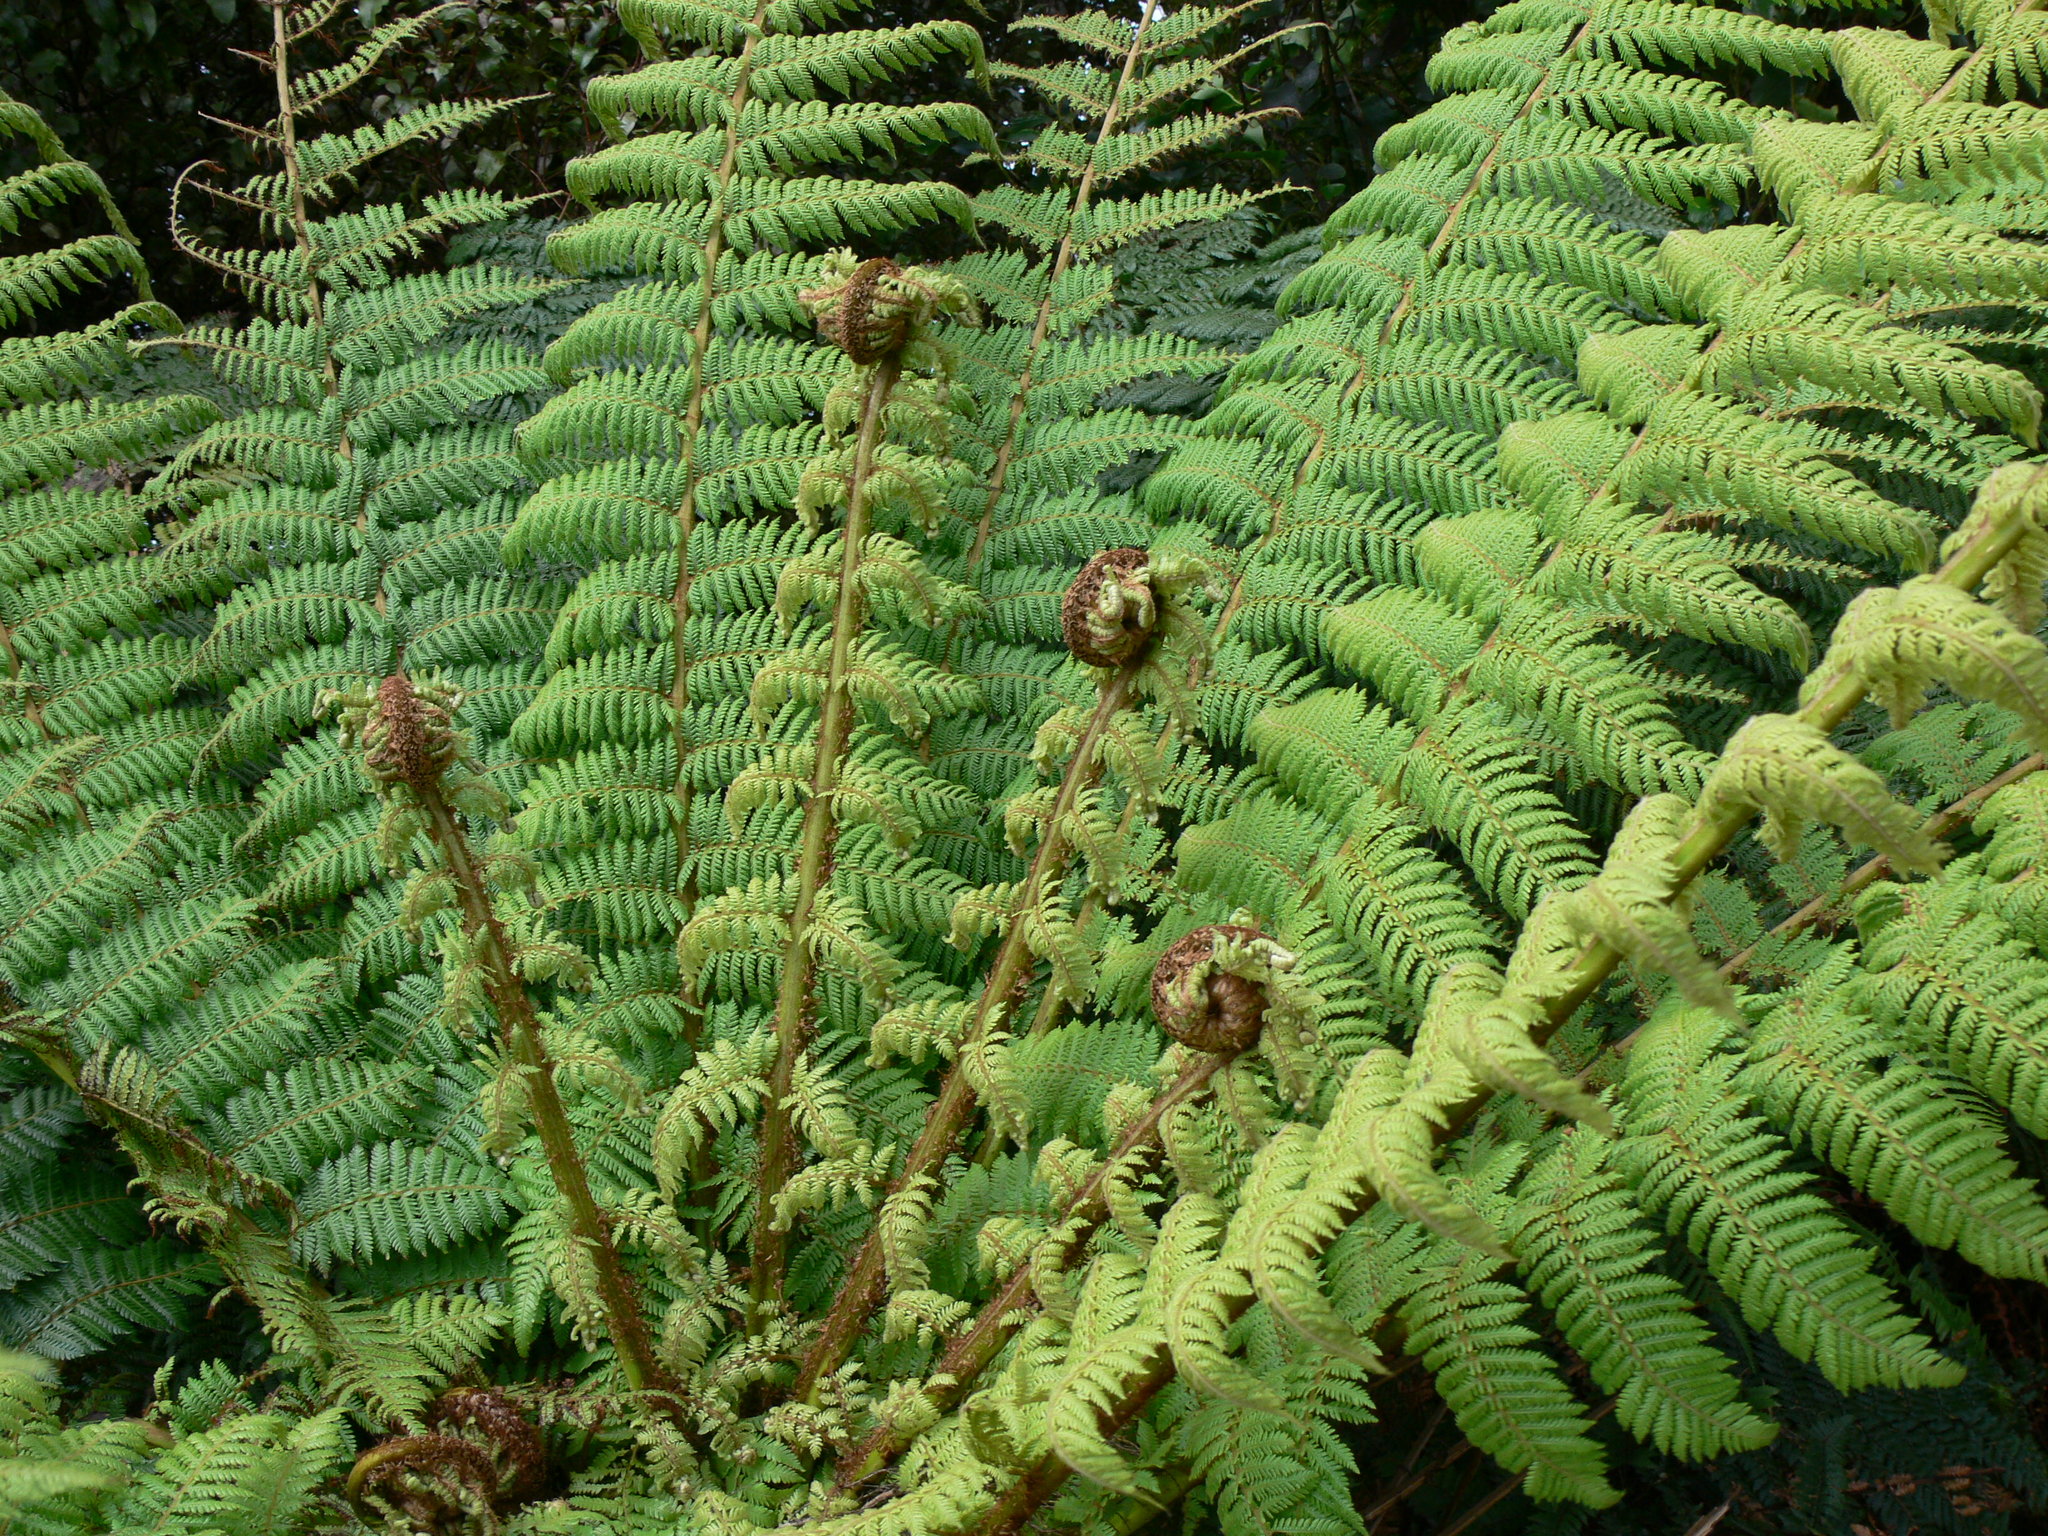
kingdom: Plantae
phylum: Tracheophyta
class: Polypodiopsida
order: Cyatheales
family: Cyatheaceae
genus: Alsophila
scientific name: Alsophila smithii
